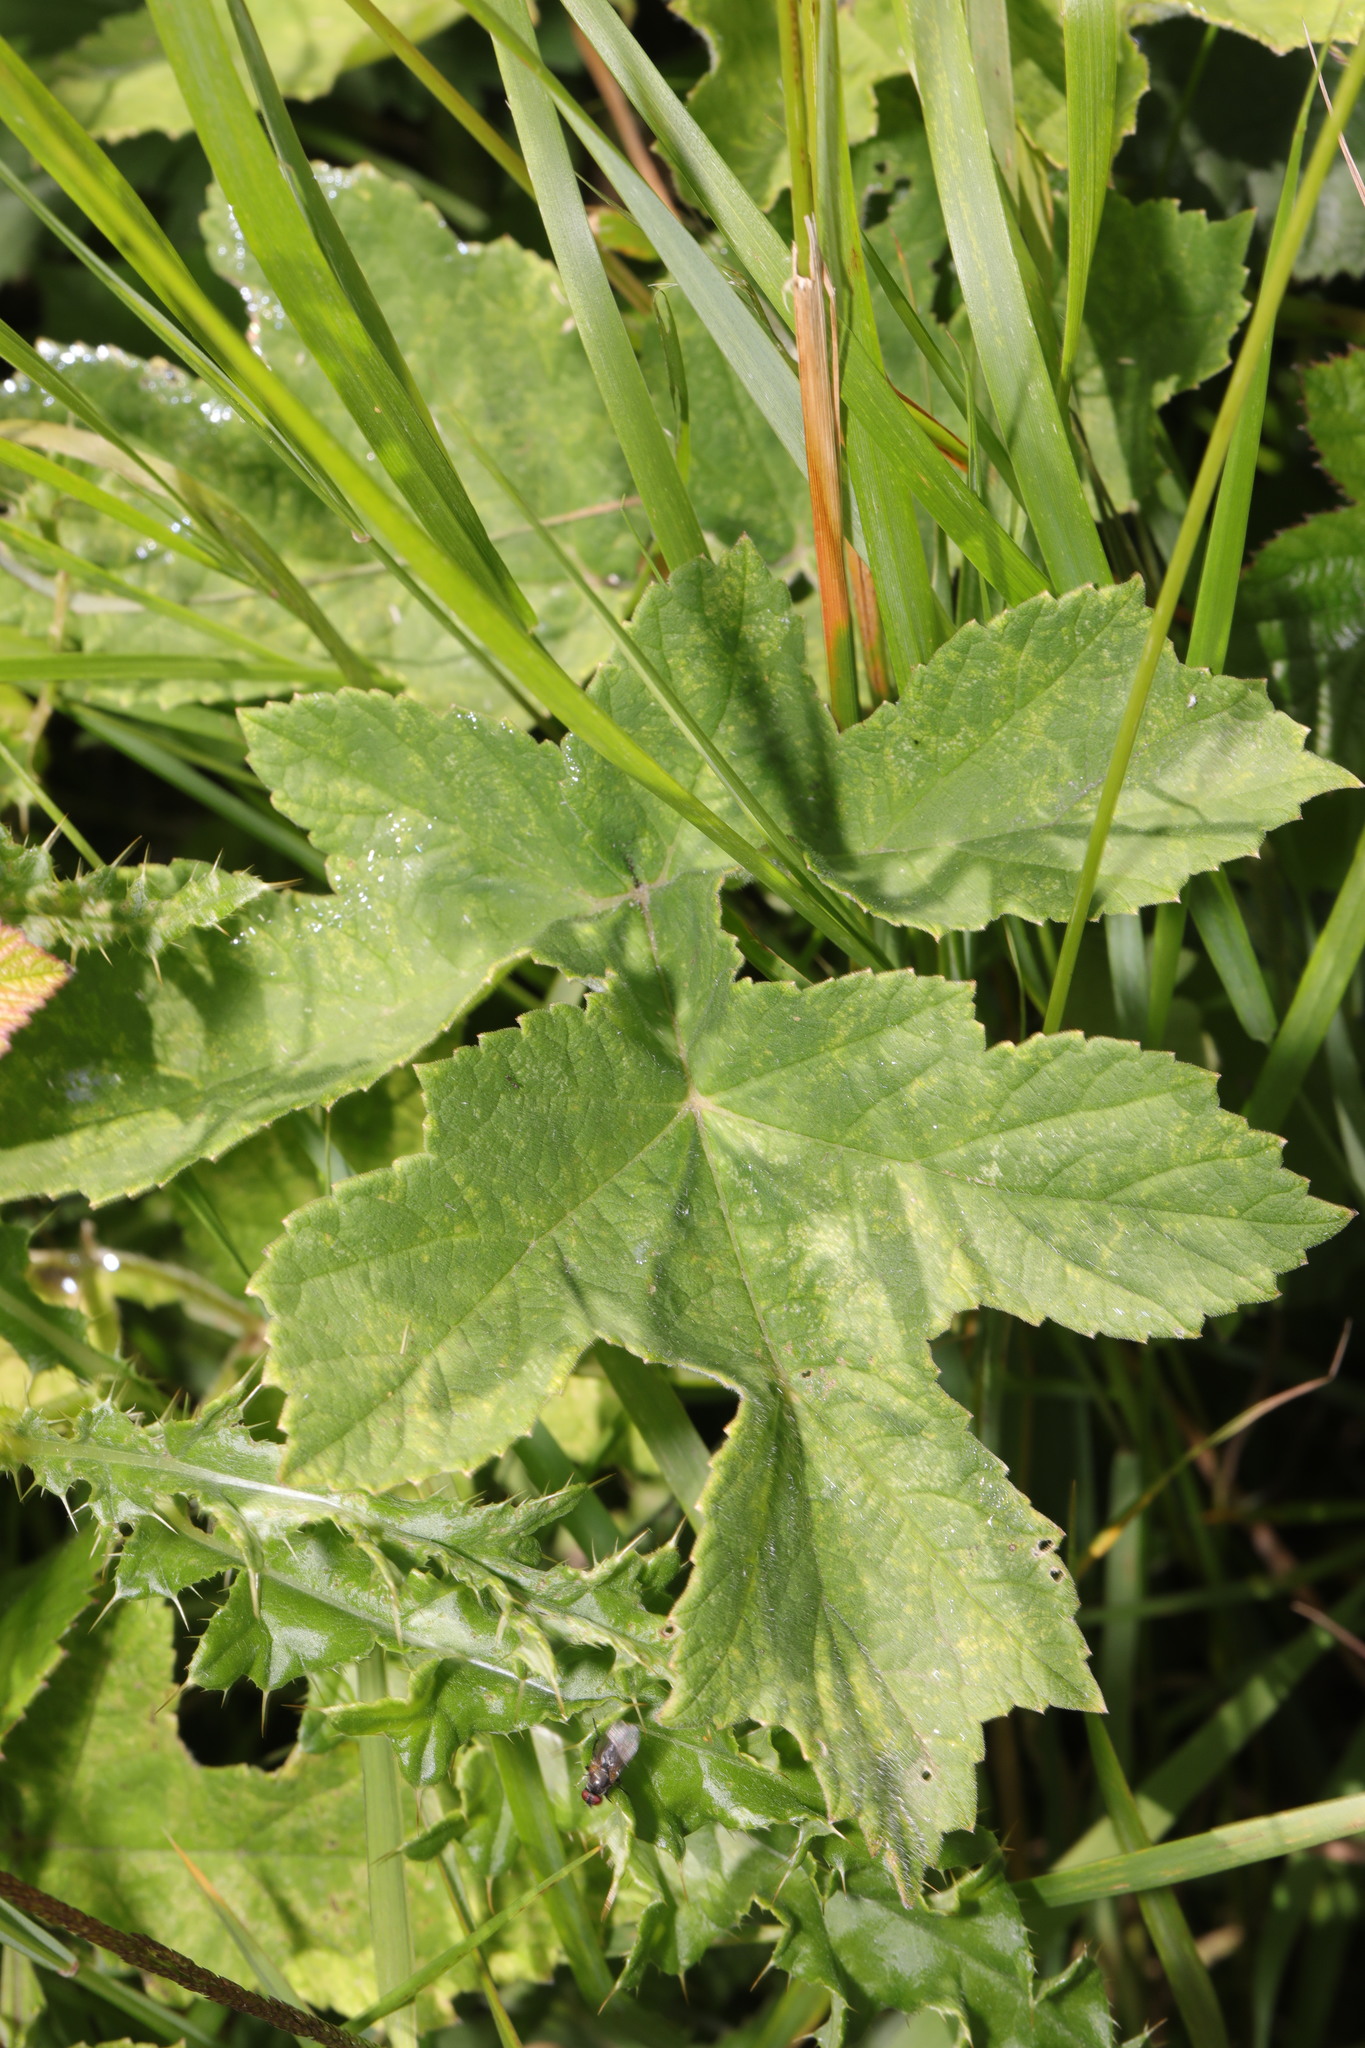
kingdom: Plantae
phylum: Tracheophyta
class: Magnoliopsida
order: Apiales
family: Apiaceae
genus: Heracleum
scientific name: Heracleum sphondylium
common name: Hogweed
